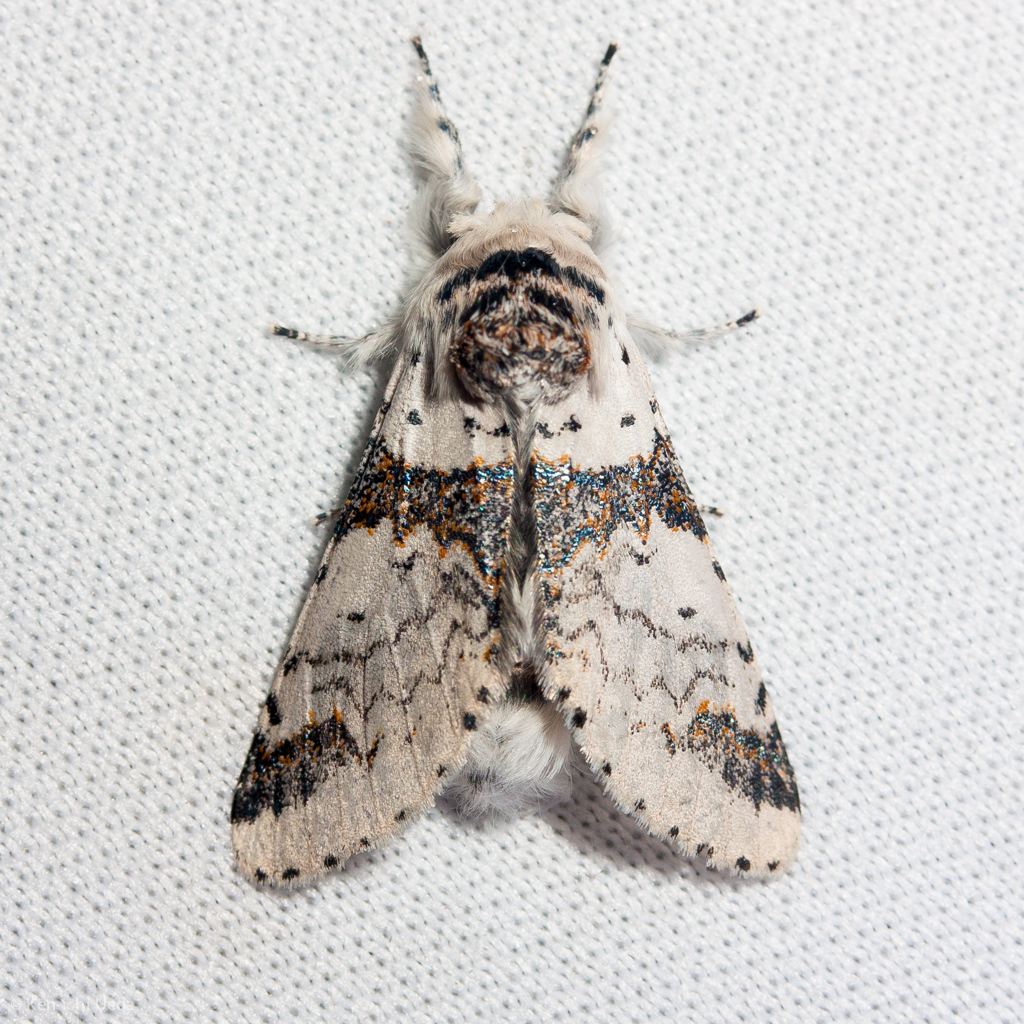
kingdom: Animalia
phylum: Arthropoda
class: Insecta
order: Lepidoptera
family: Notodontidae
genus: Furcula
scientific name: Furcula scolopendrina
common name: Zigzag furcula moth
